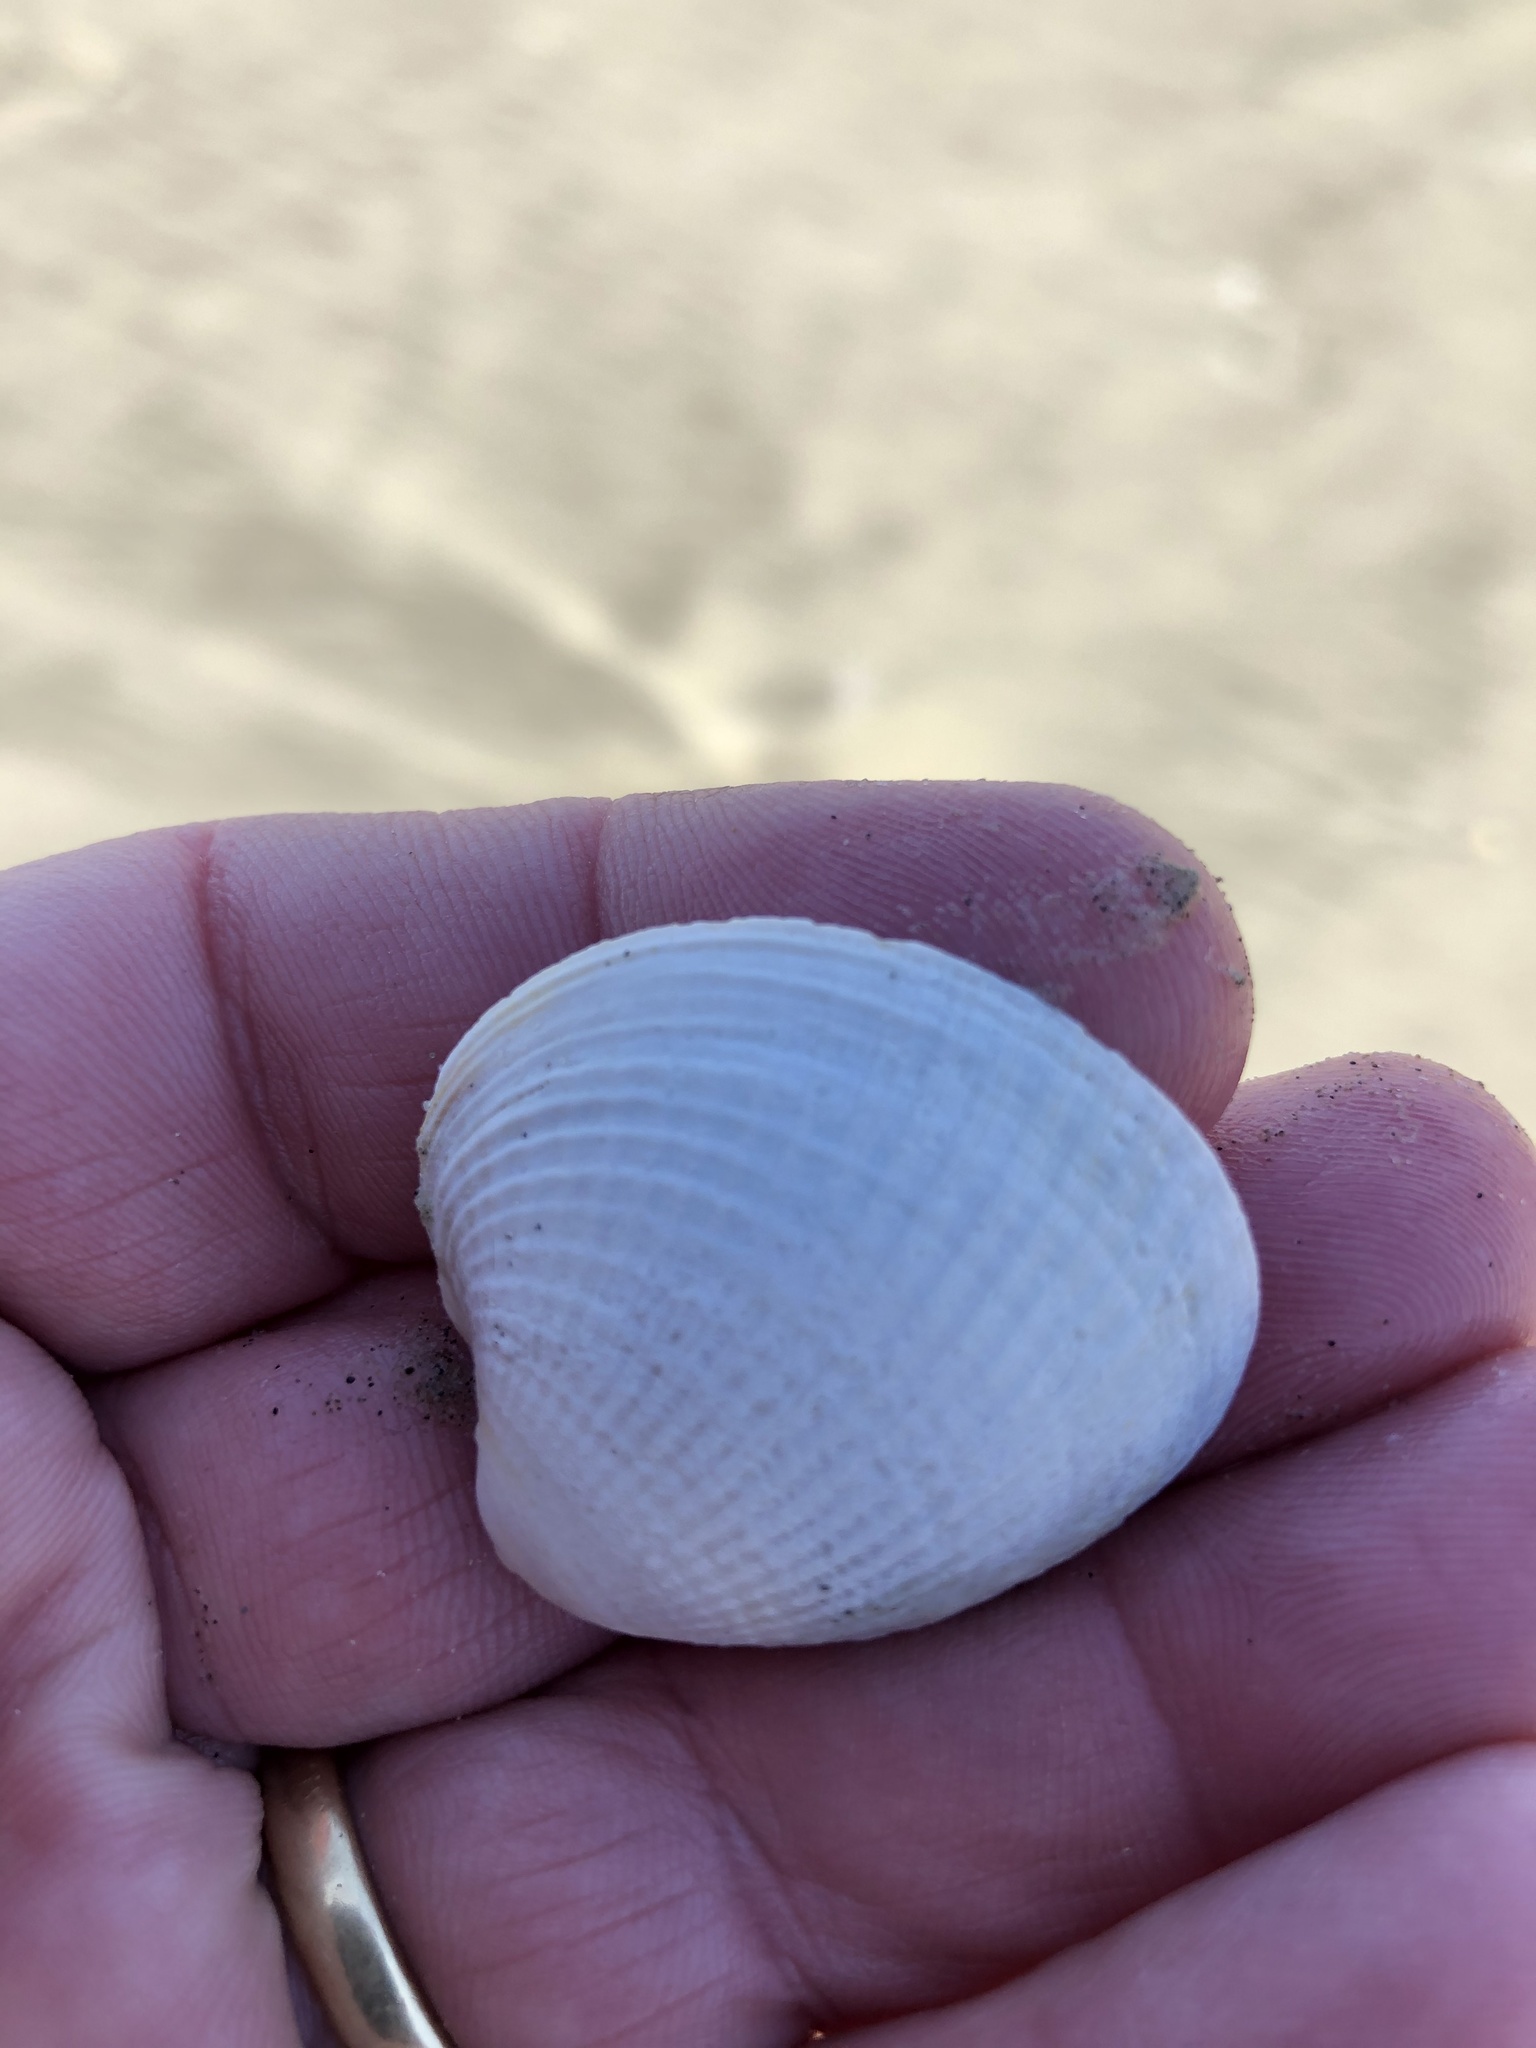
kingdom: Animalia
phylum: Mollusca
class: Bivalvia
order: Venerida
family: Veneridae
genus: Austrovenus
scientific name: Austrovenus stutchburyi
